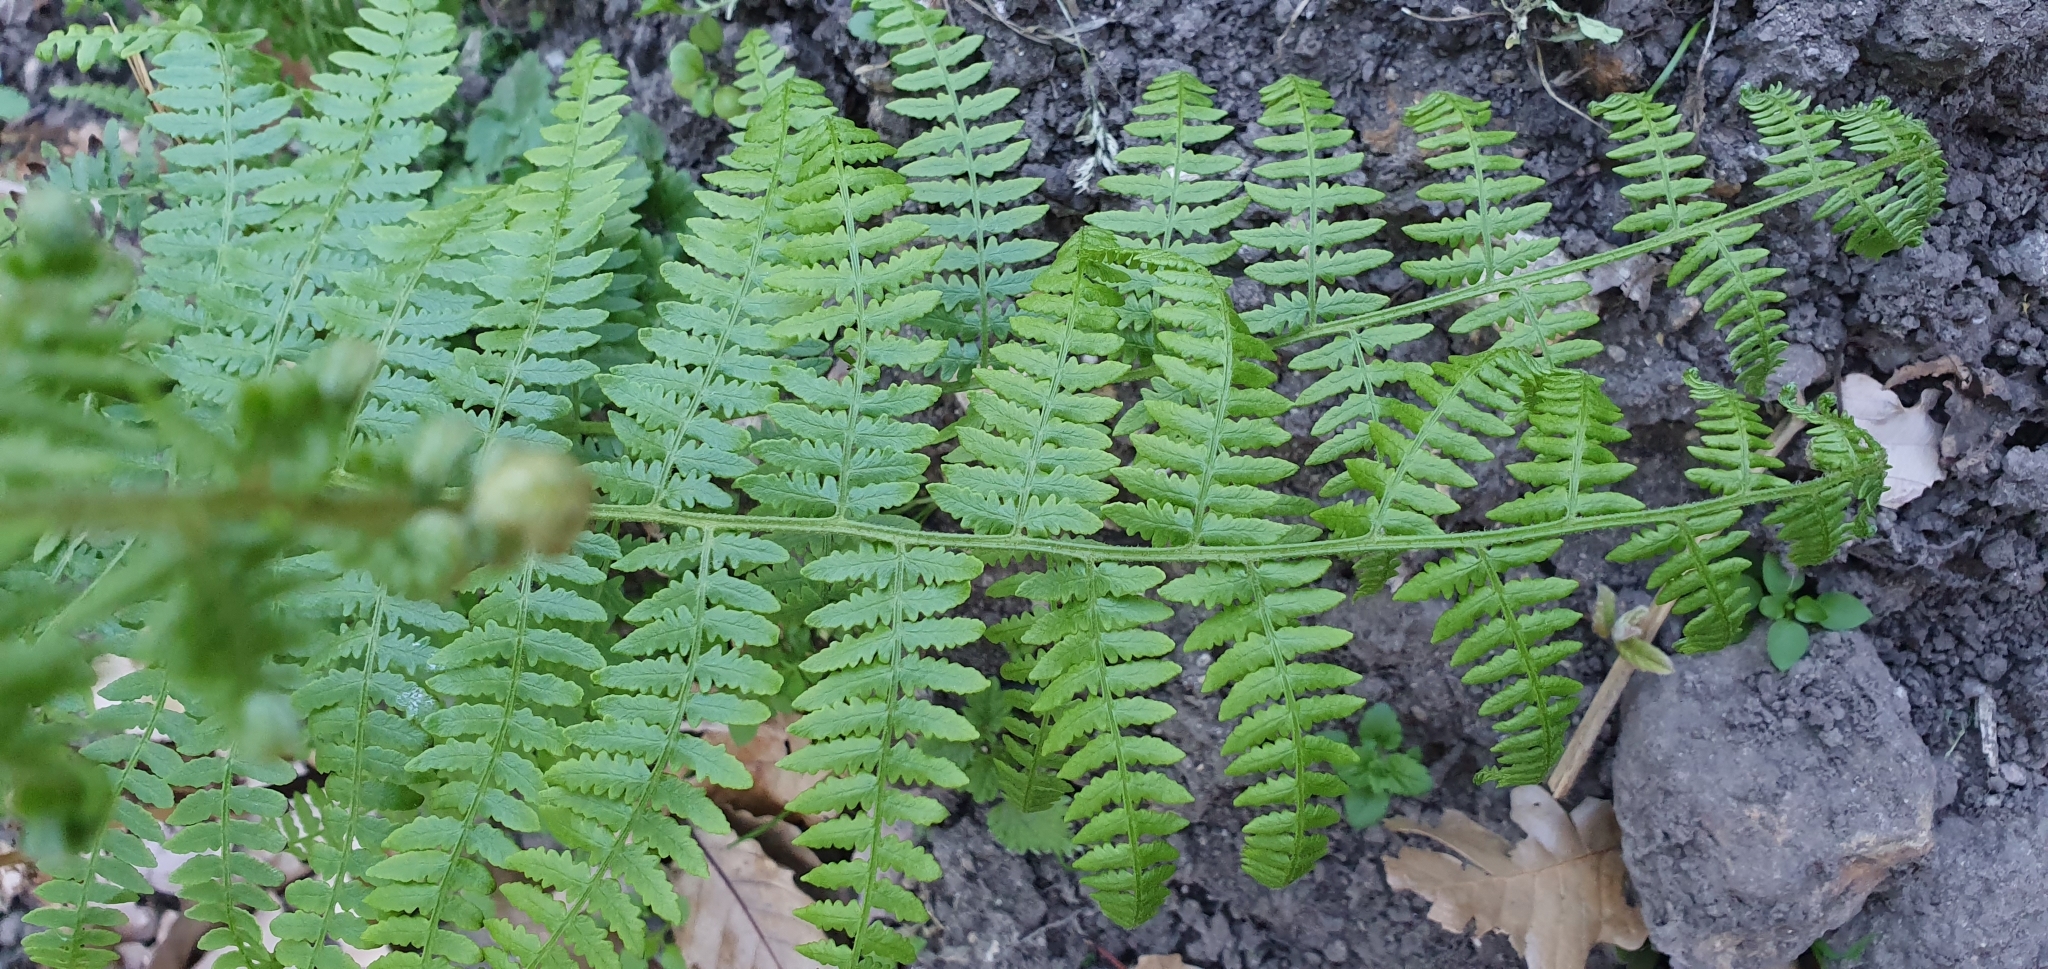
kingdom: Plantae
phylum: Tracheophyta
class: Polypodiopsida
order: Polypodiales
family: Dennstaedtiaceae
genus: Pteridium
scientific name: Pteridium aquilinum
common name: Bracken
